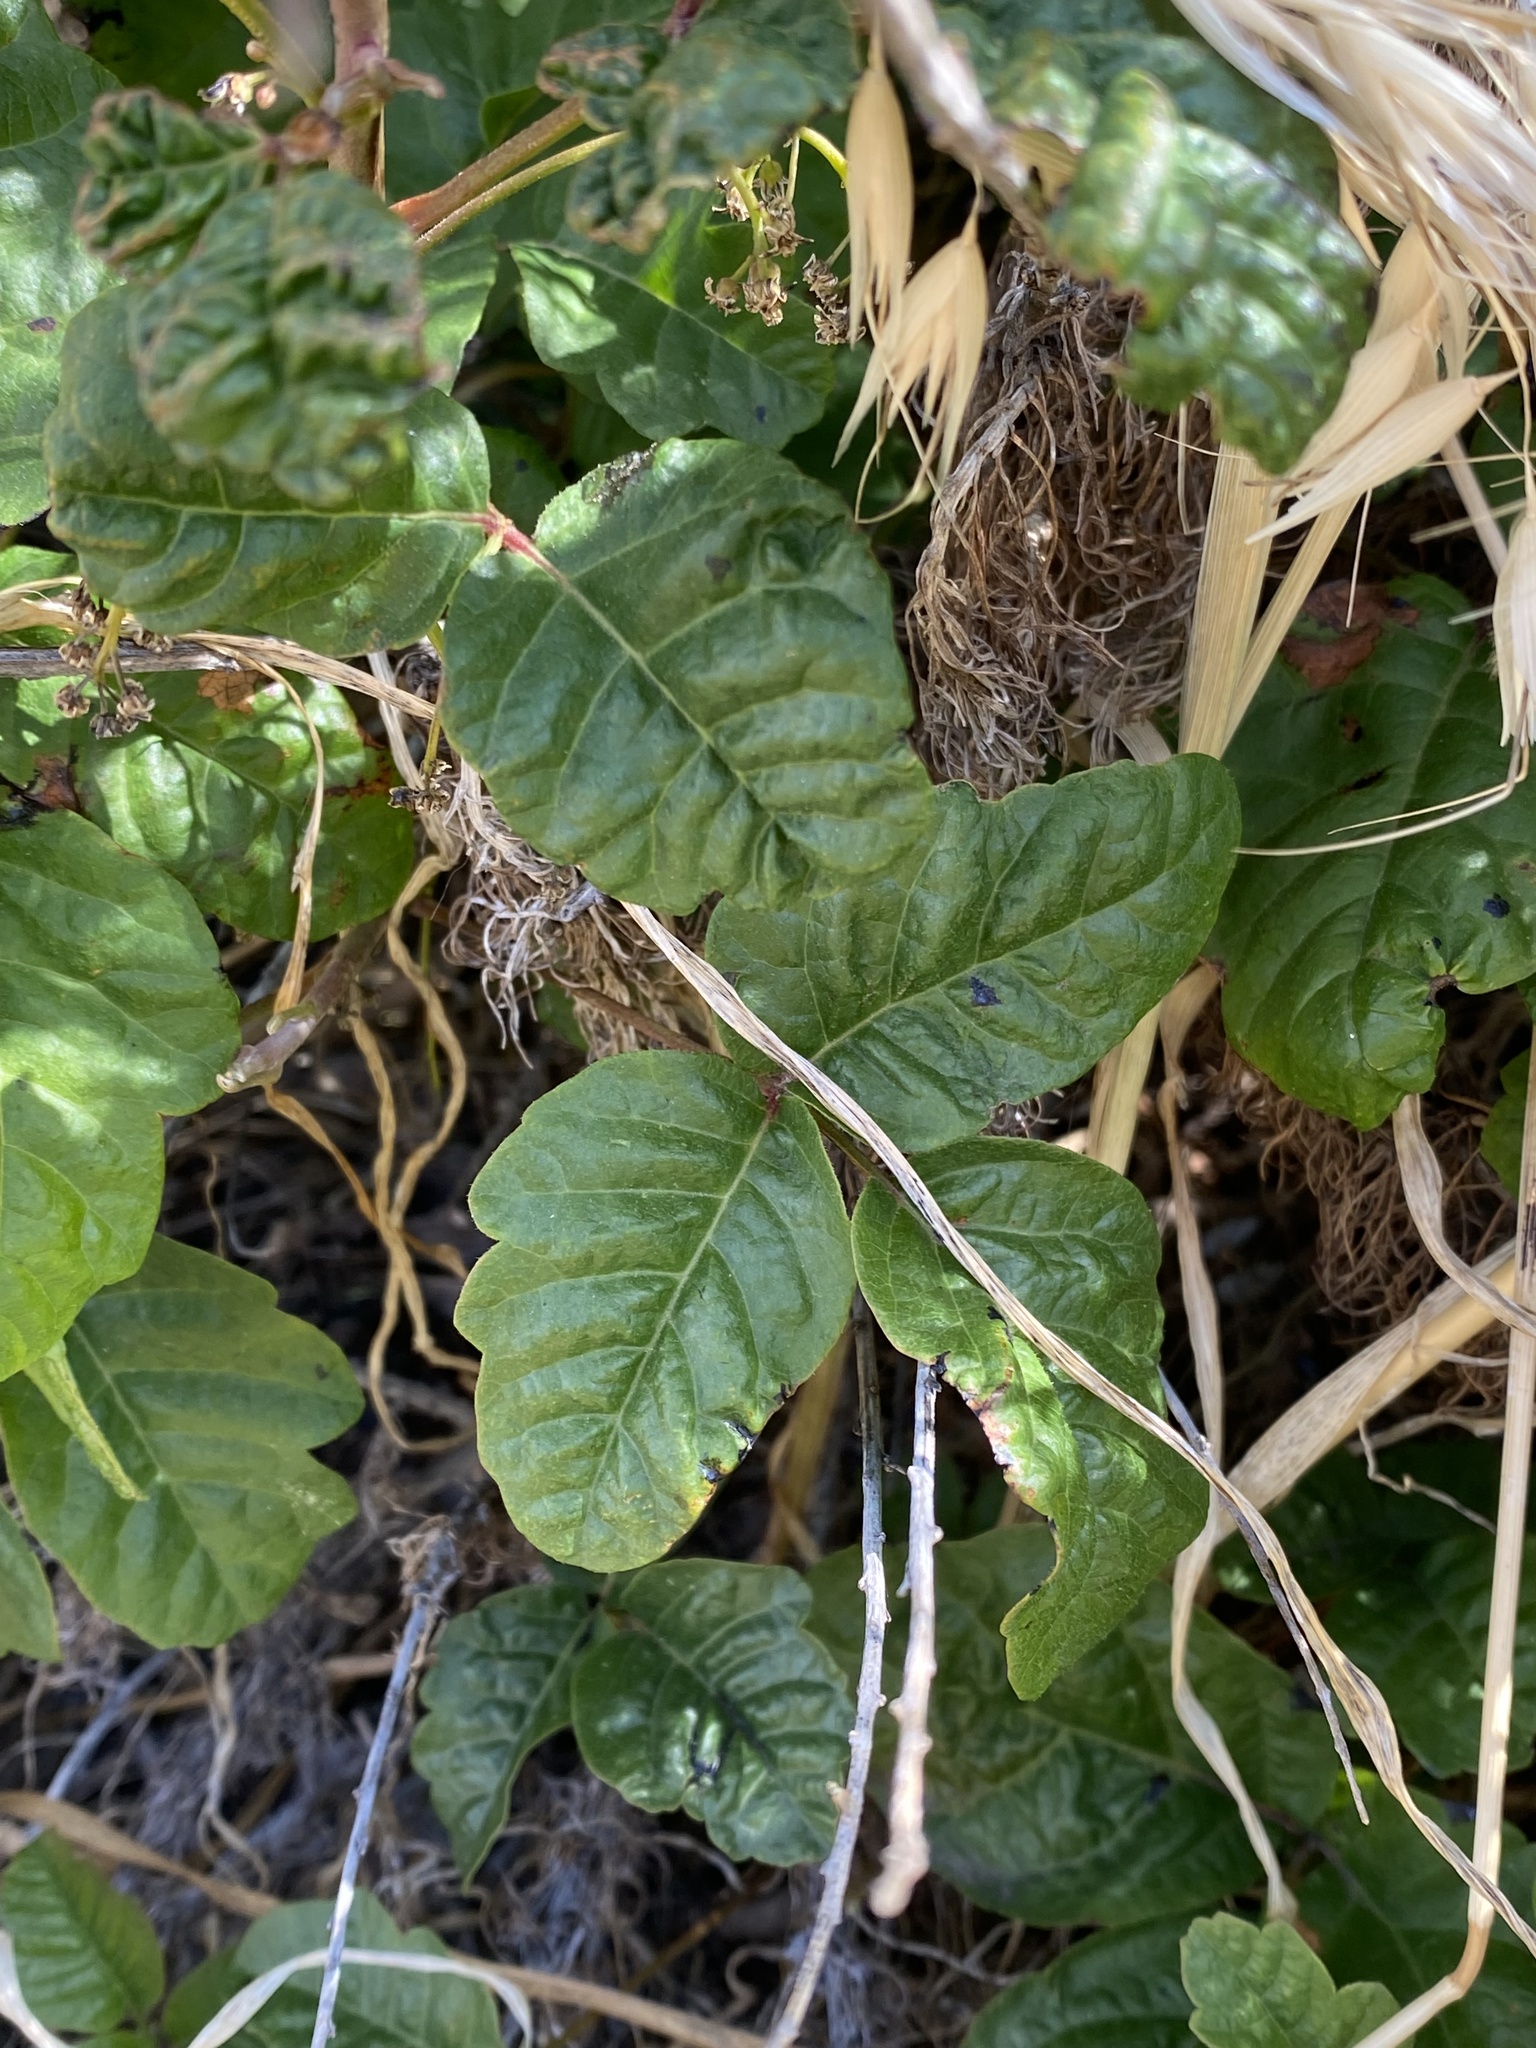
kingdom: Plantae
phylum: Tracheophyta
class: Magnoliopsida
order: Sapindales
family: Anacardiaceae
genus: Toxicodendron
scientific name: Toxicodendron diversilobum
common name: Pacific poison-oak
